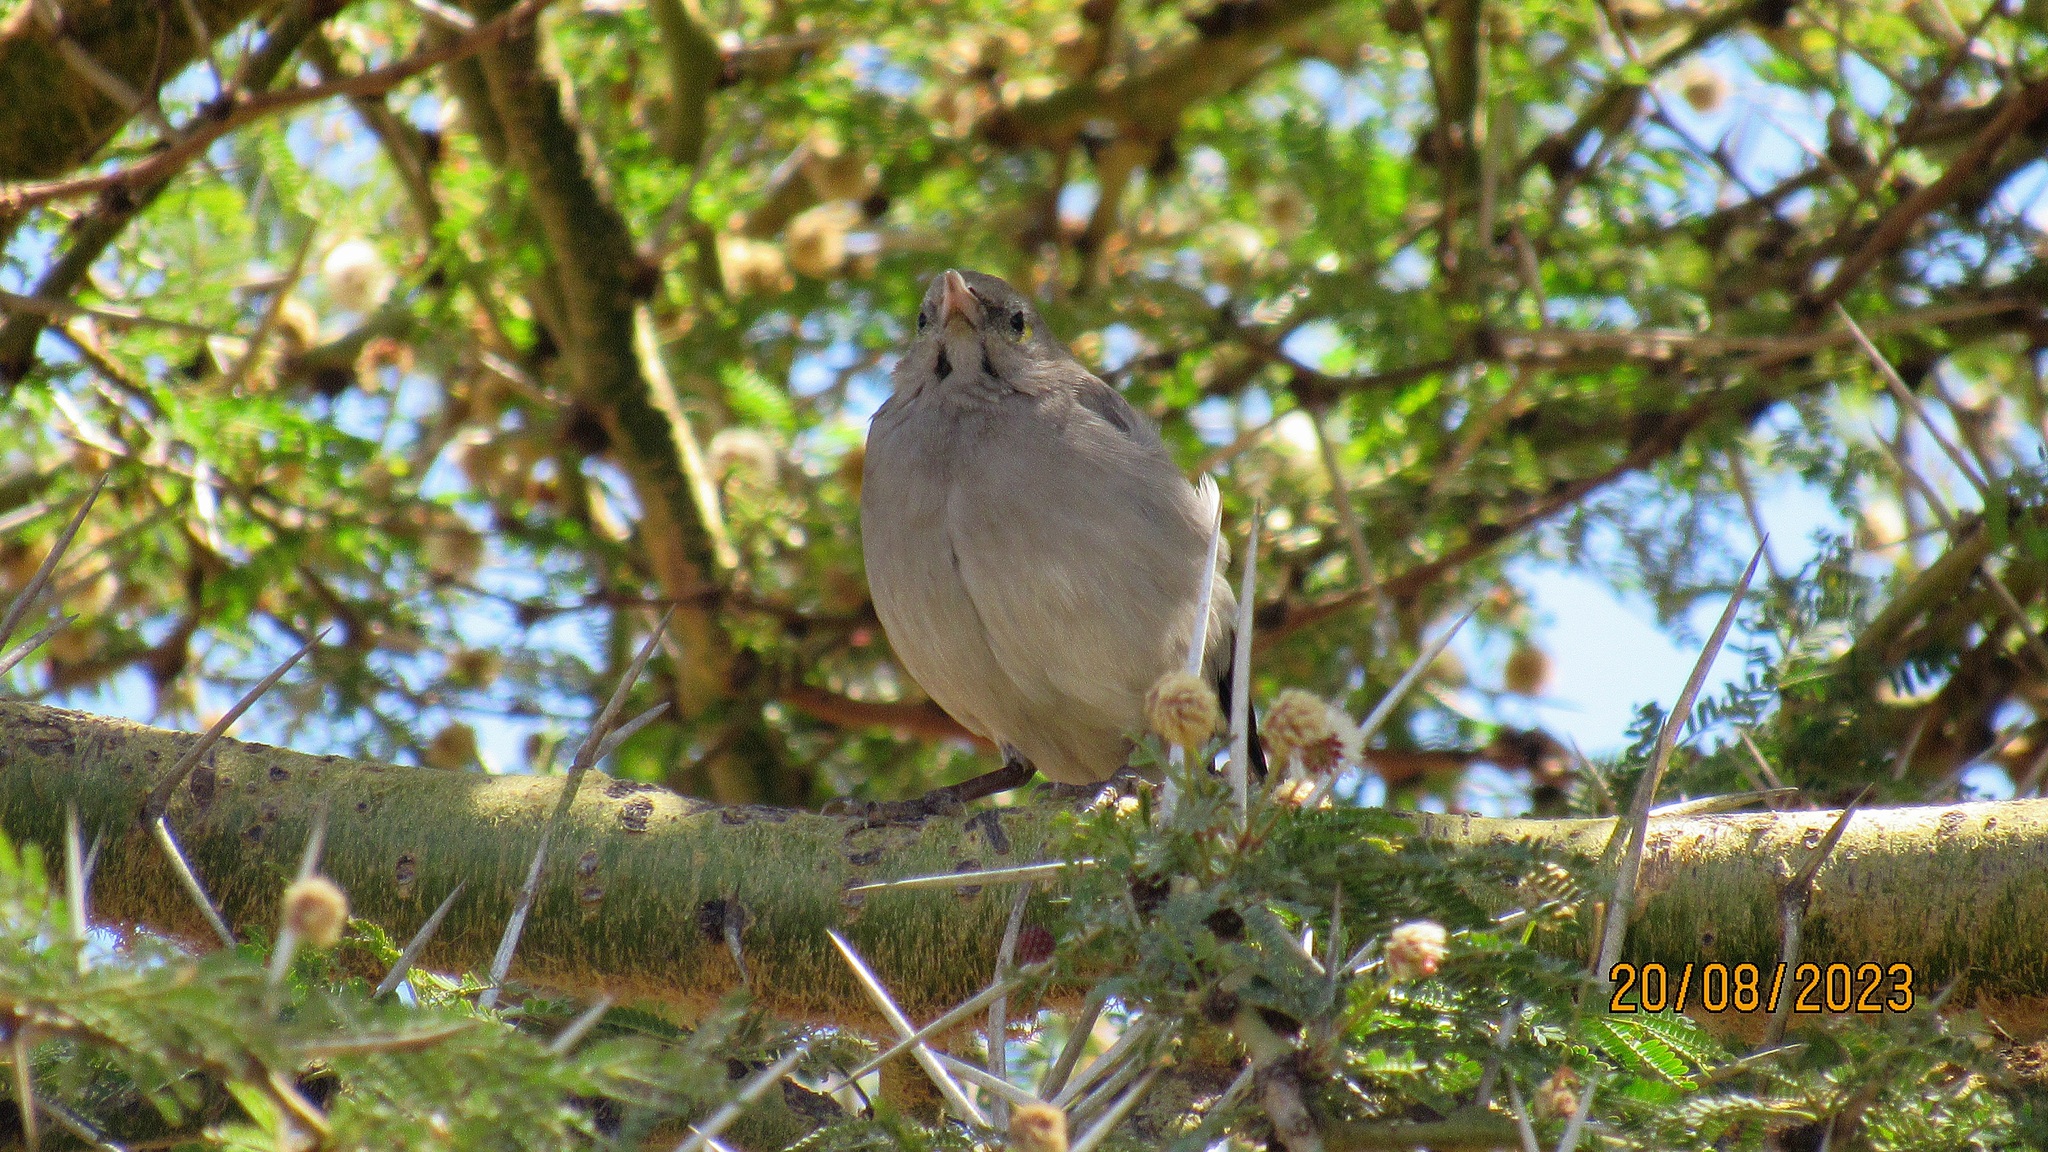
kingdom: Animalia
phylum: Chordata
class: Aves
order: Passeriformes
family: Sturnidae
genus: Creatophora
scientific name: Creatophora cinerea
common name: Wattled starling
